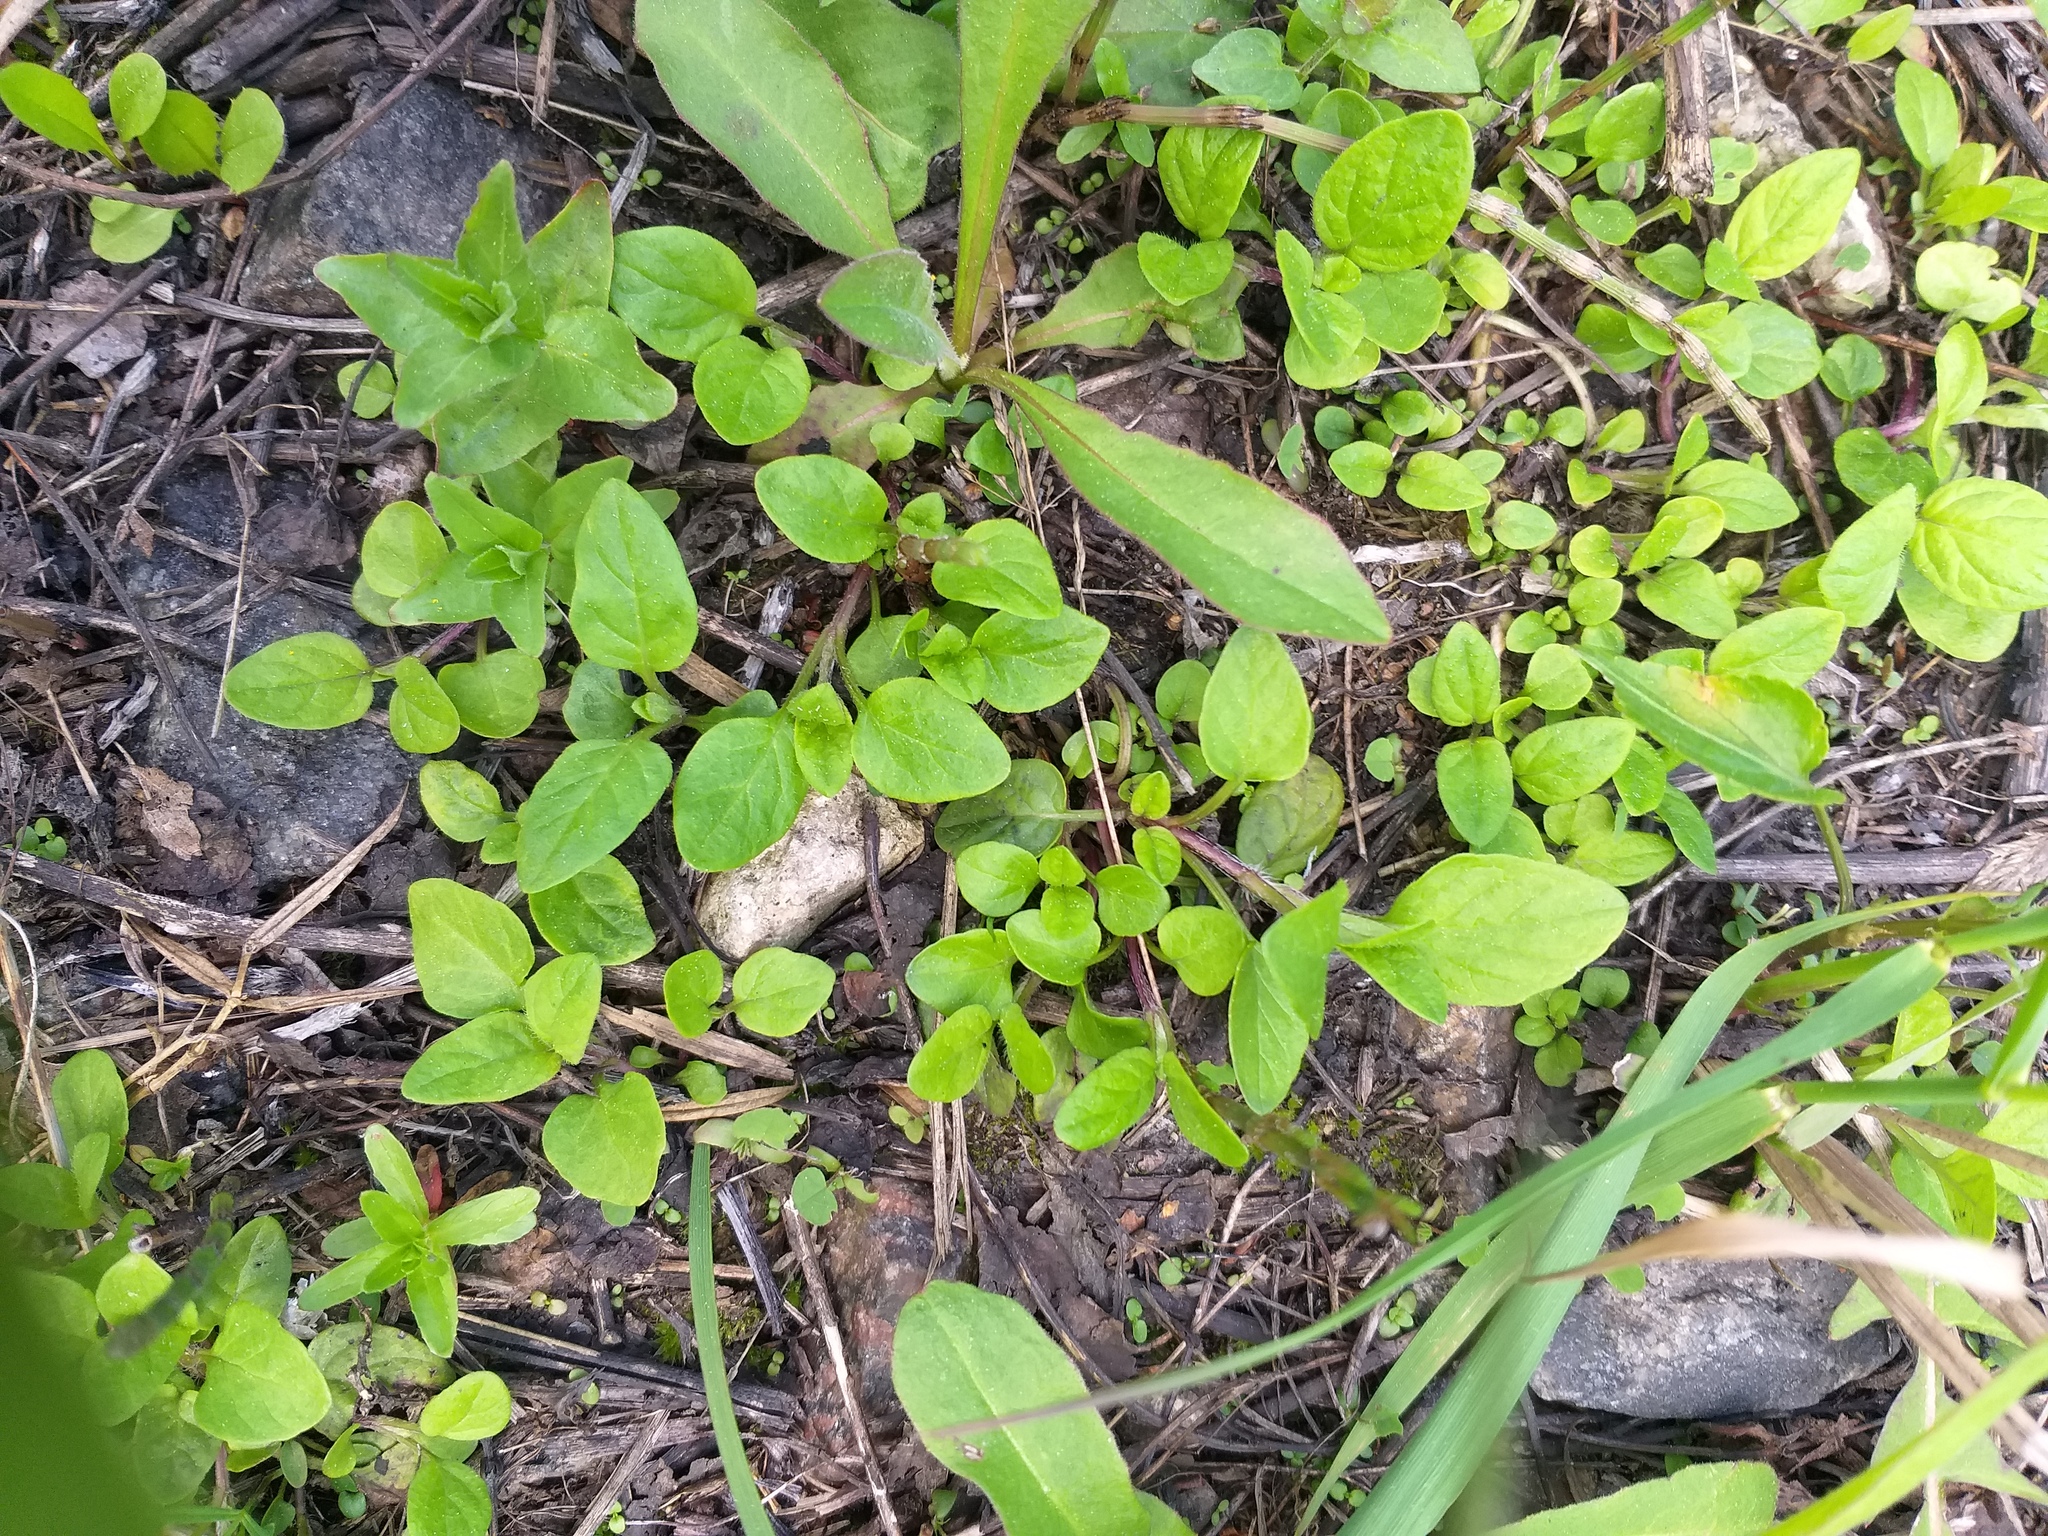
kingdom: Plantae
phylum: Tracheophyta
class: Magnoliopsida
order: Lamiales
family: Lamiaceae
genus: Prunella
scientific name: Prunella vulgaris
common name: Heal-all
